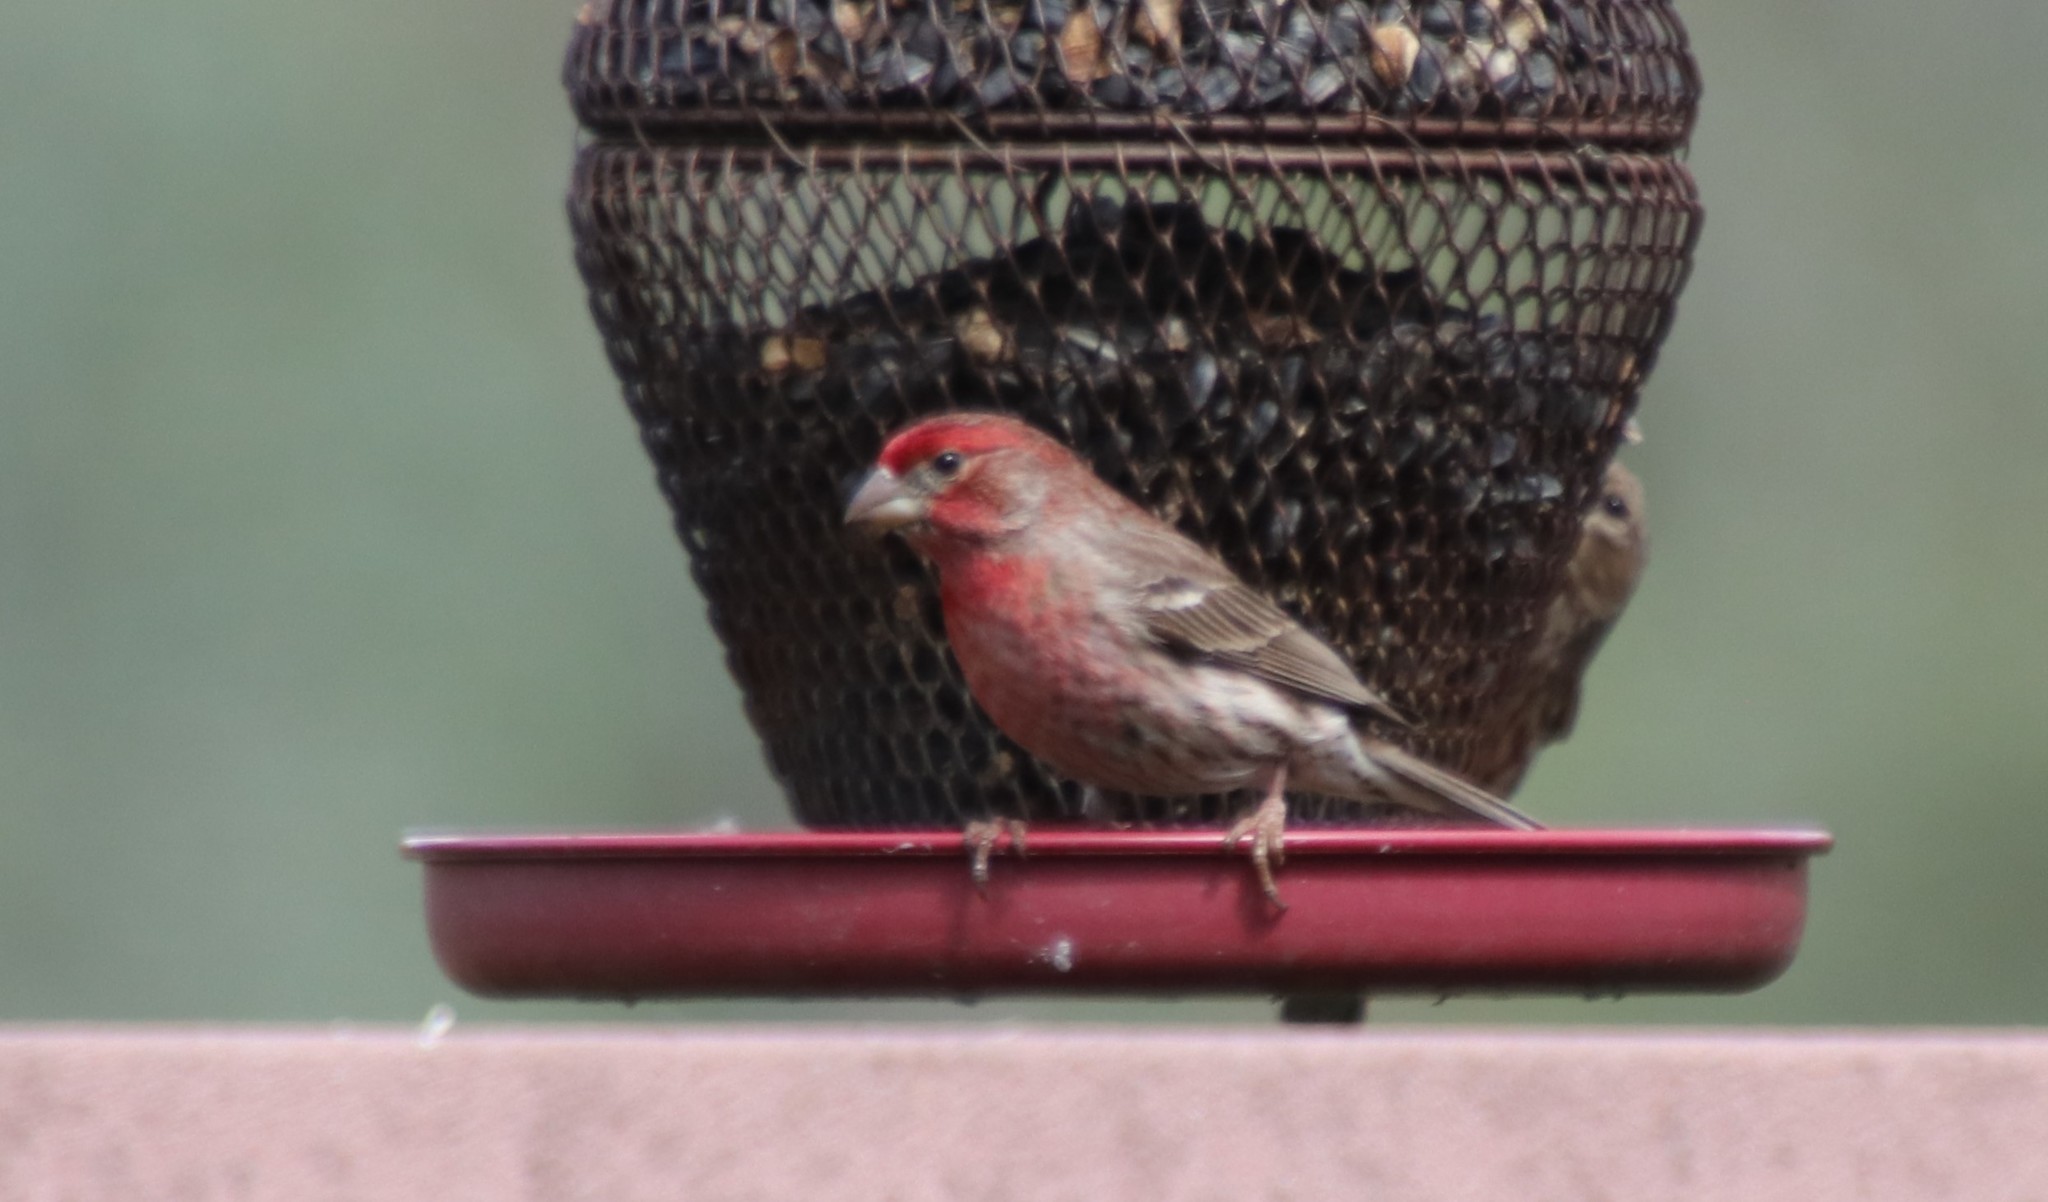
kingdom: Animalia
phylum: Chordata
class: Aves
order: Passeriformes
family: Fringillidae
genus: Haemorhous
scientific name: Haemorhous mexicanus
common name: House finch
